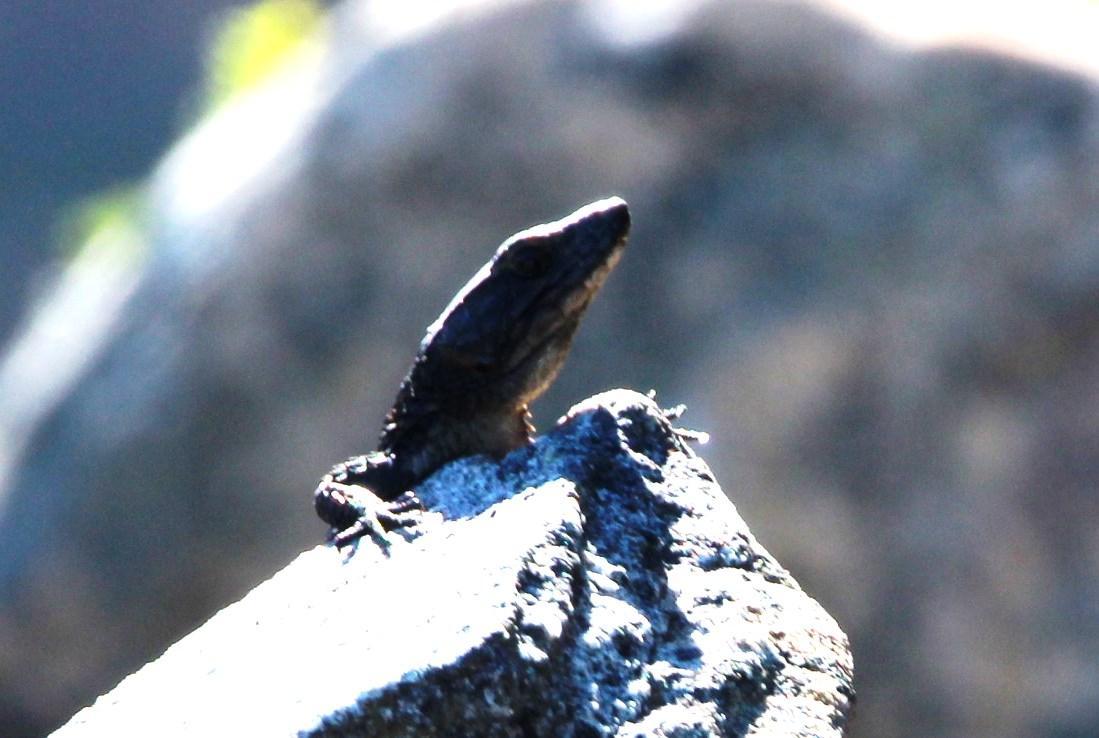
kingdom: Animalia
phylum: Chordata
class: Squamata
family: Cordylidae
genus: Cordylus
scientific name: Cordylus niger
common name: Black girdled lizard
